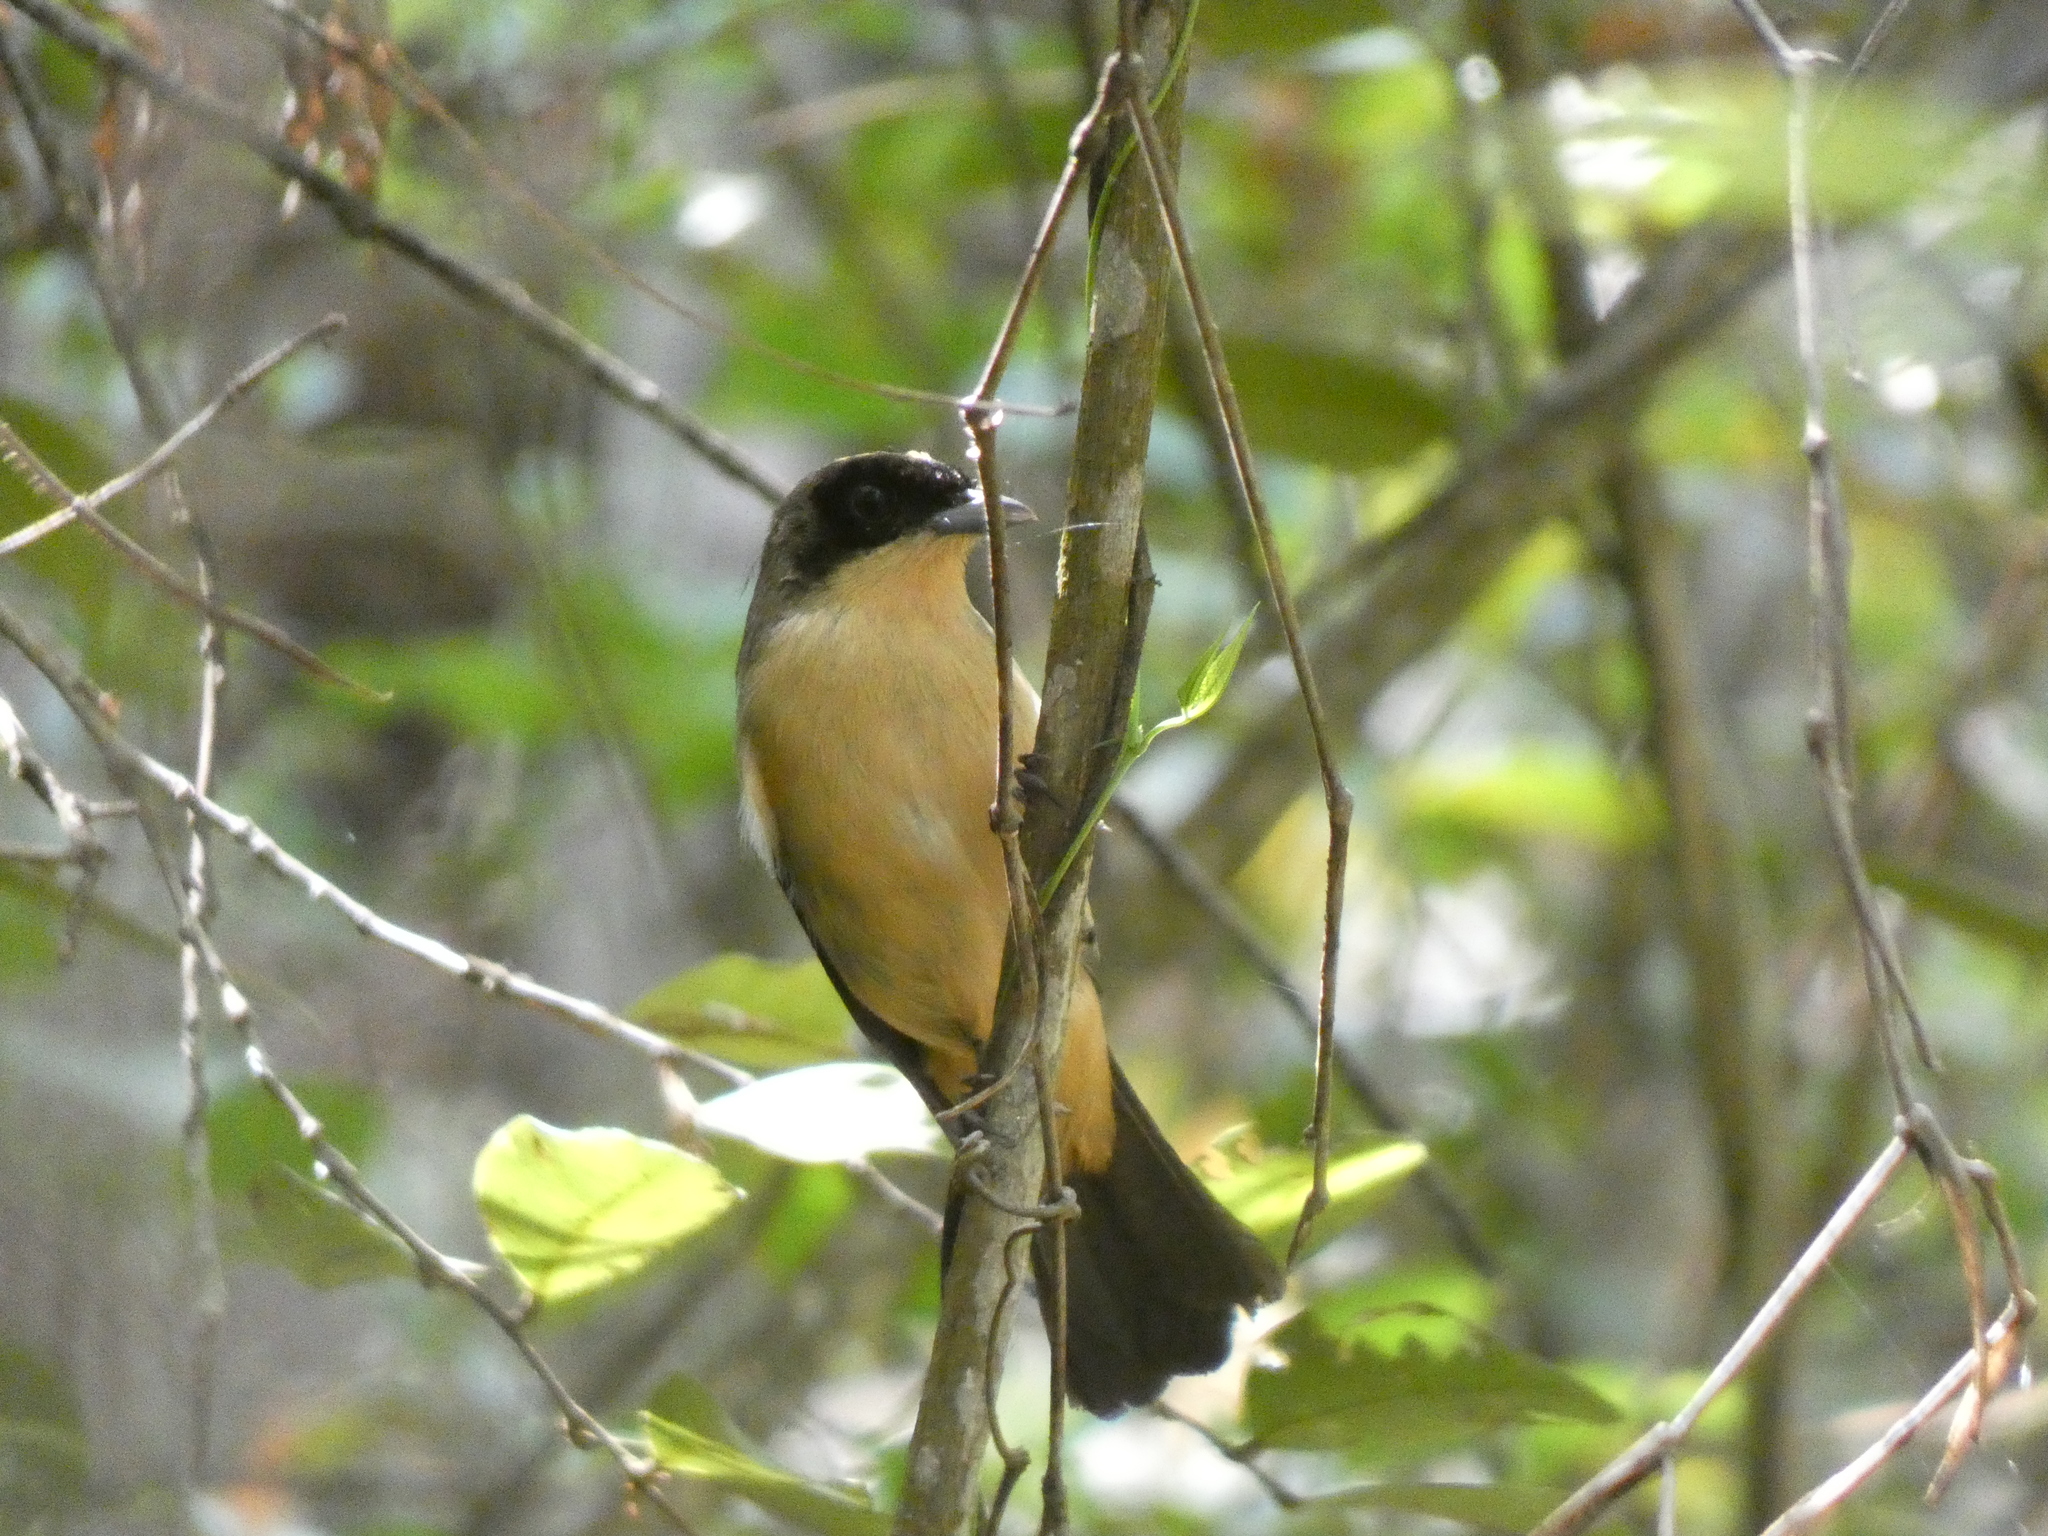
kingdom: Animalia
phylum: Chordata
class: Aves
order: Passeriformes
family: Thraupidae
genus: Trichothraupis
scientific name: Trichothraupis melanops
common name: Black-goggled tanager
